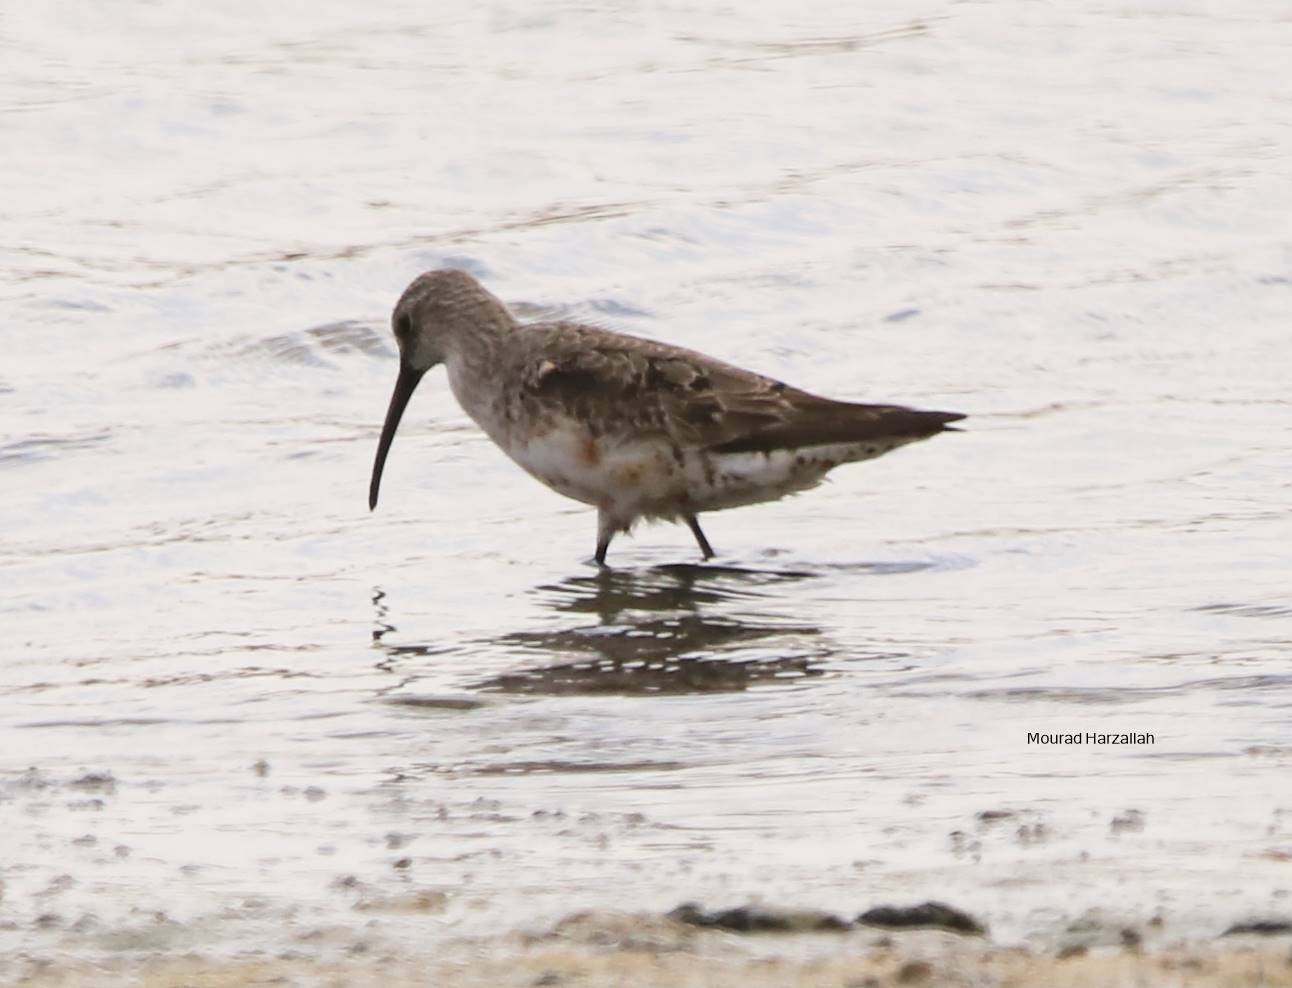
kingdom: Animalia
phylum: Chordata
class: Aves
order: Charadriiformes
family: Scolopacidae
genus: Calidris
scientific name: Calidris ferruginea
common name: Curlew sandpiper
